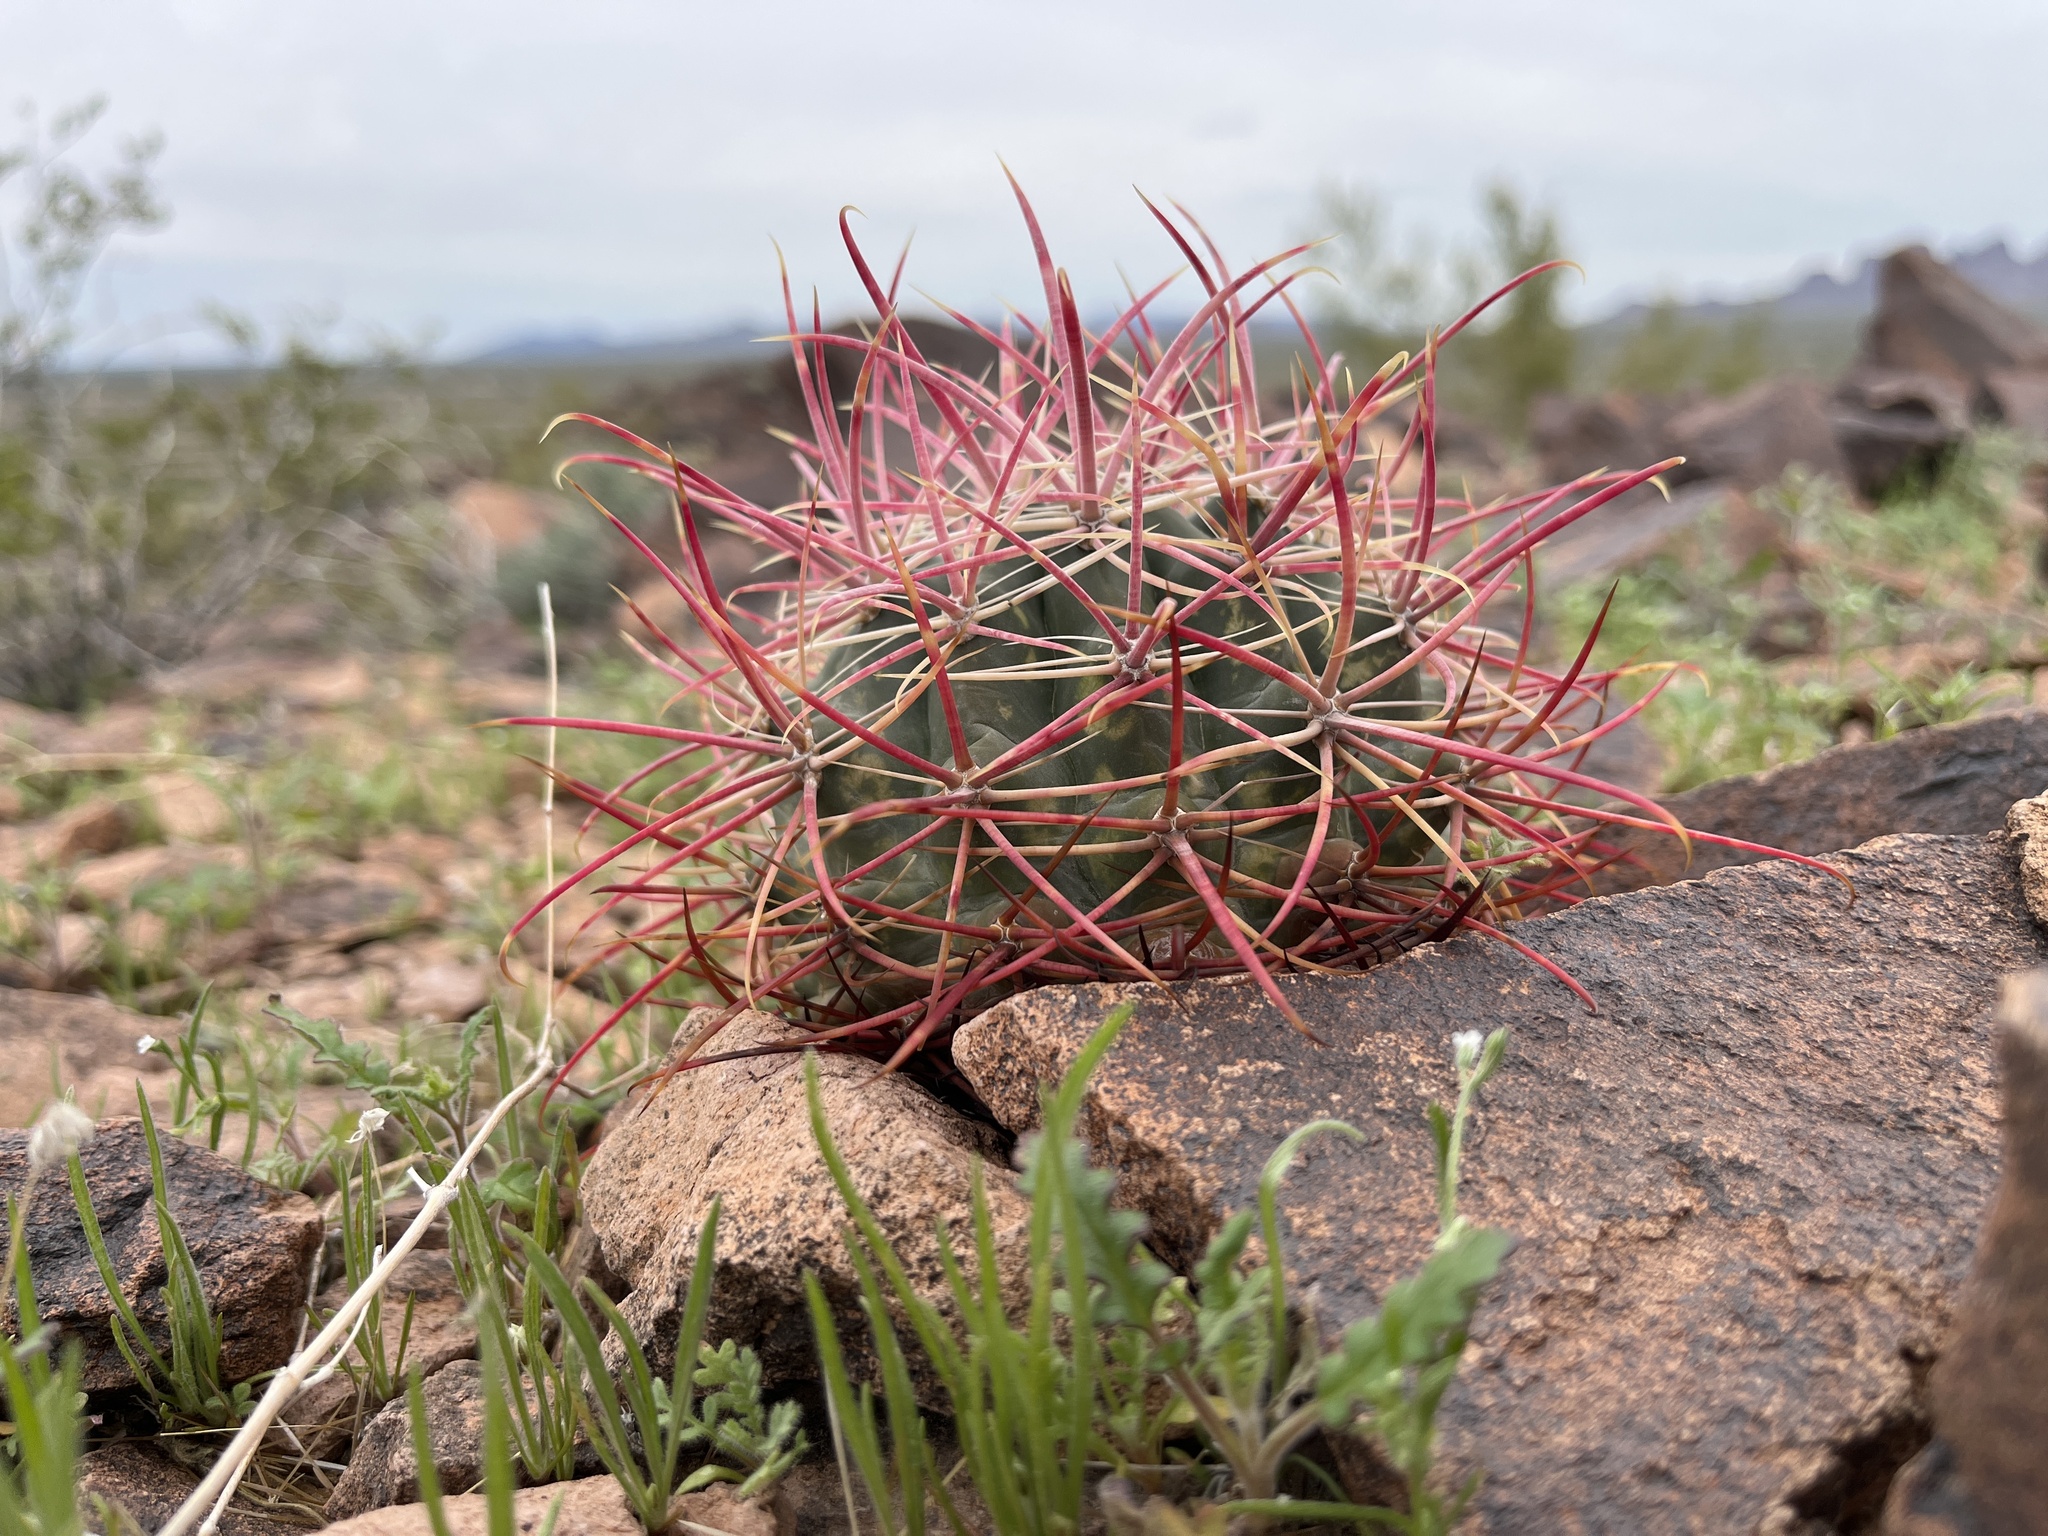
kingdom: Plantae
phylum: Tracheophyta
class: Magnoliopsida
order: Caryophyllales
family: Cactaceae
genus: Ferocactus
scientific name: Ferocactus cylindraceus
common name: California barrel cactus
